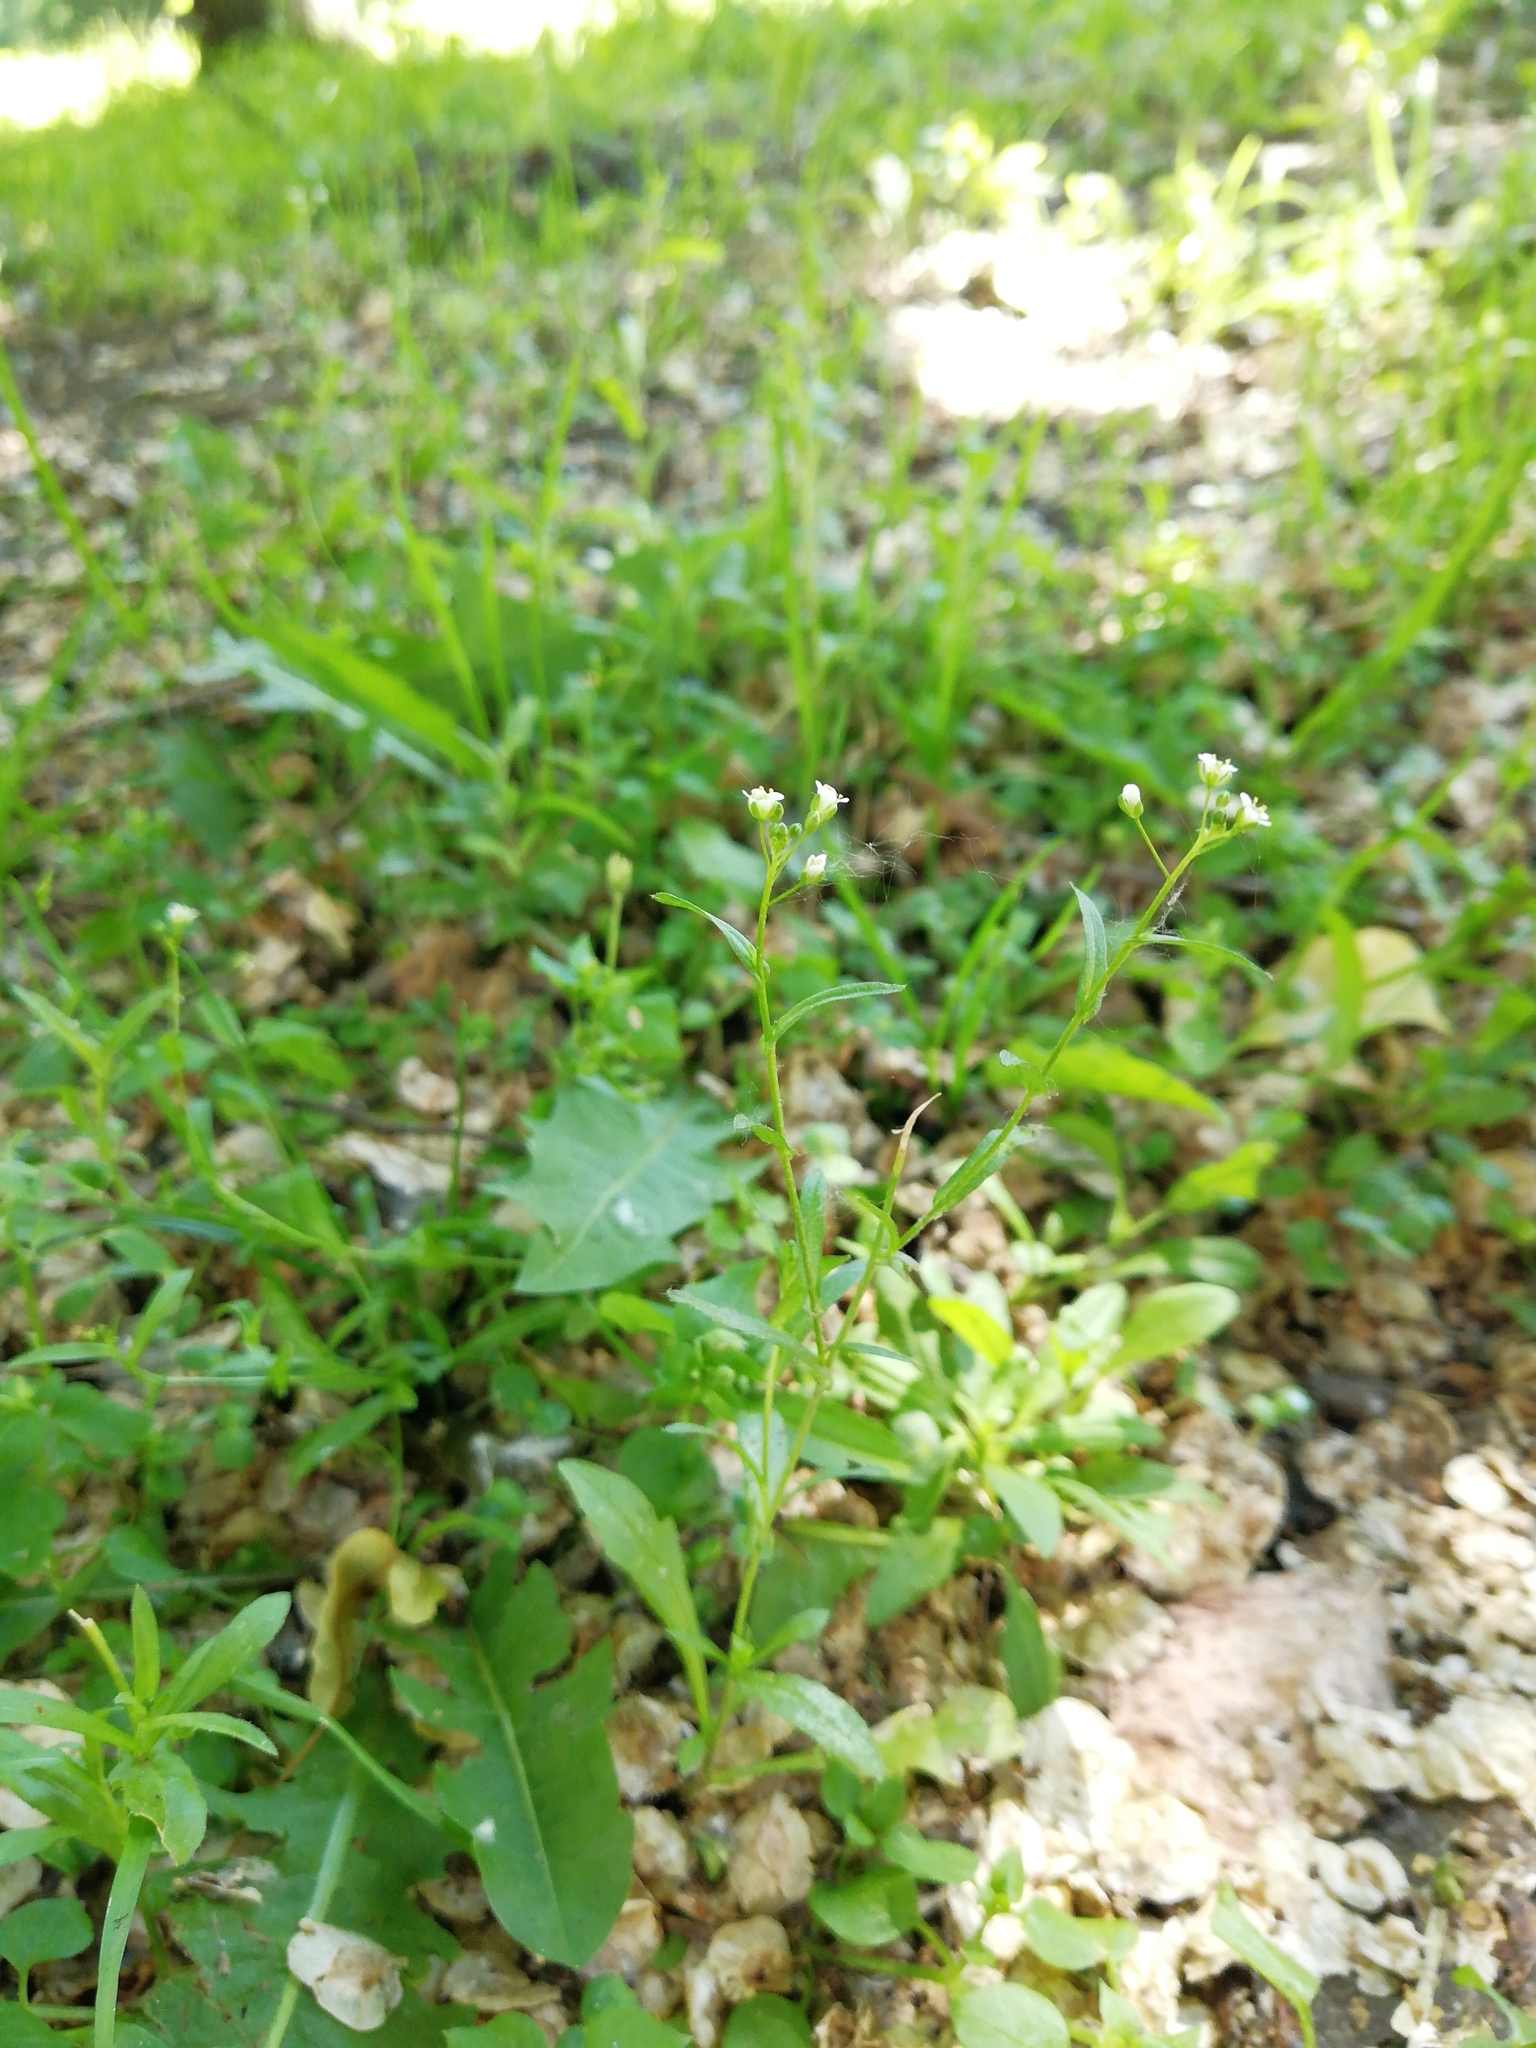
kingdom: Plantae
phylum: Tracheophyta
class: Magnoliopsida
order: Brassicales
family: Brassicaceae
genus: Capsella
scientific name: Capsella bursa-pastoris
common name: Shepherd's purse
